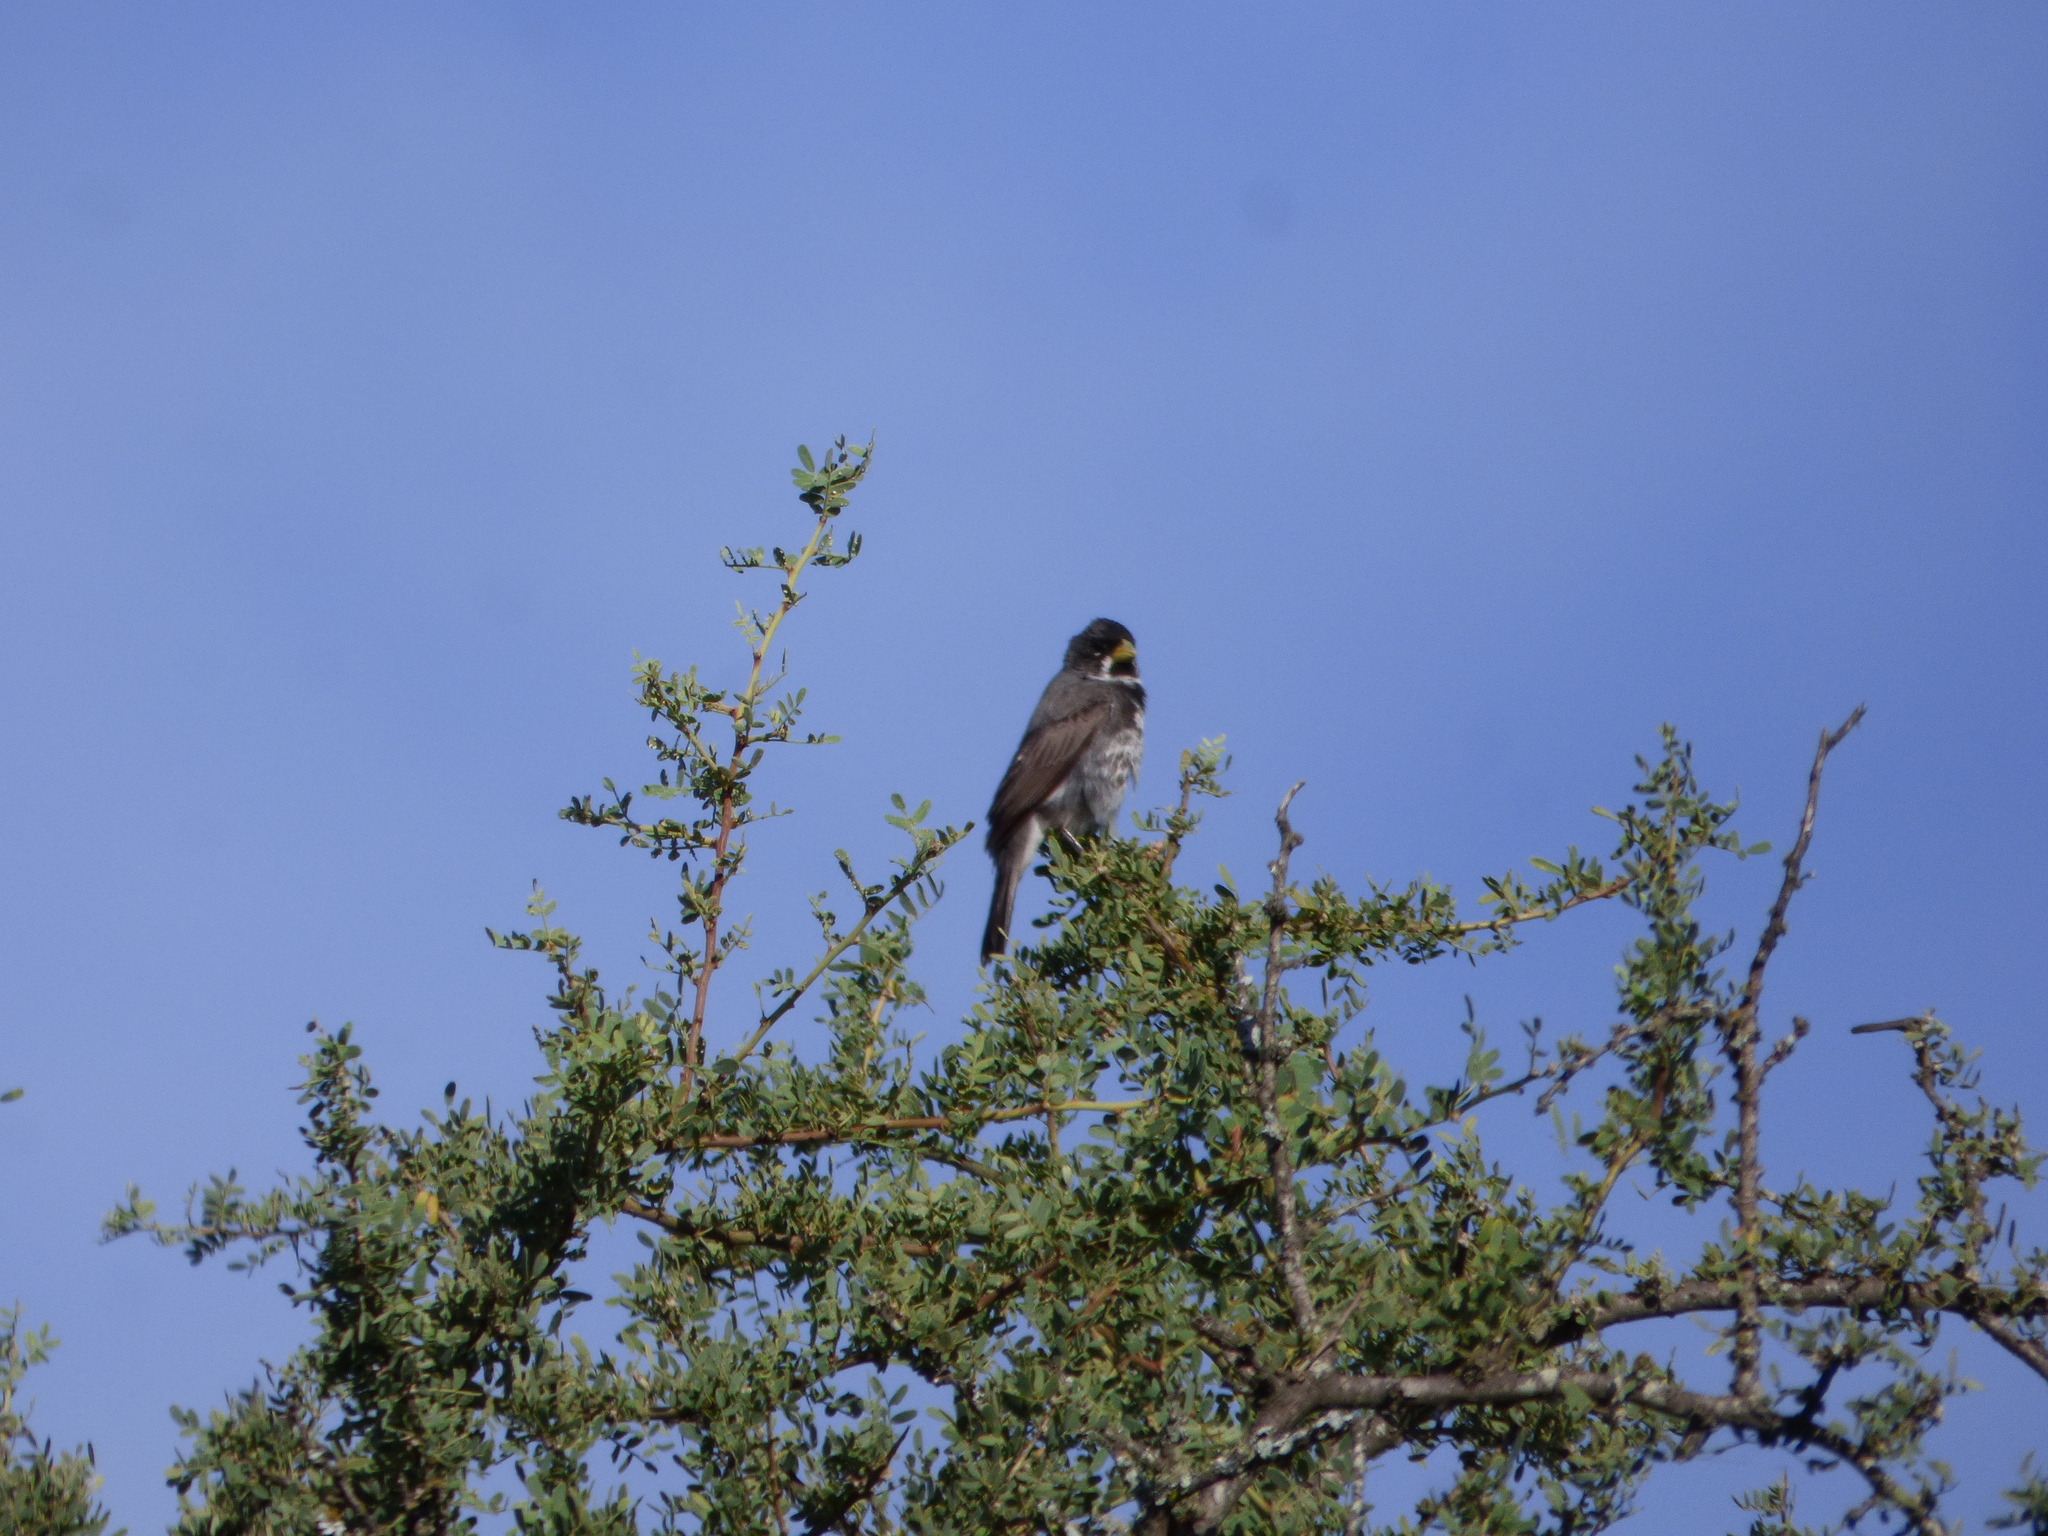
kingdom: Animalia
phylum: Chordata
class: Aves
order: Passeriformes
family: Thraupidae
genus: Sporophila
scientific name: Sporophila caerulescens
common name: Double-collared seedeater
